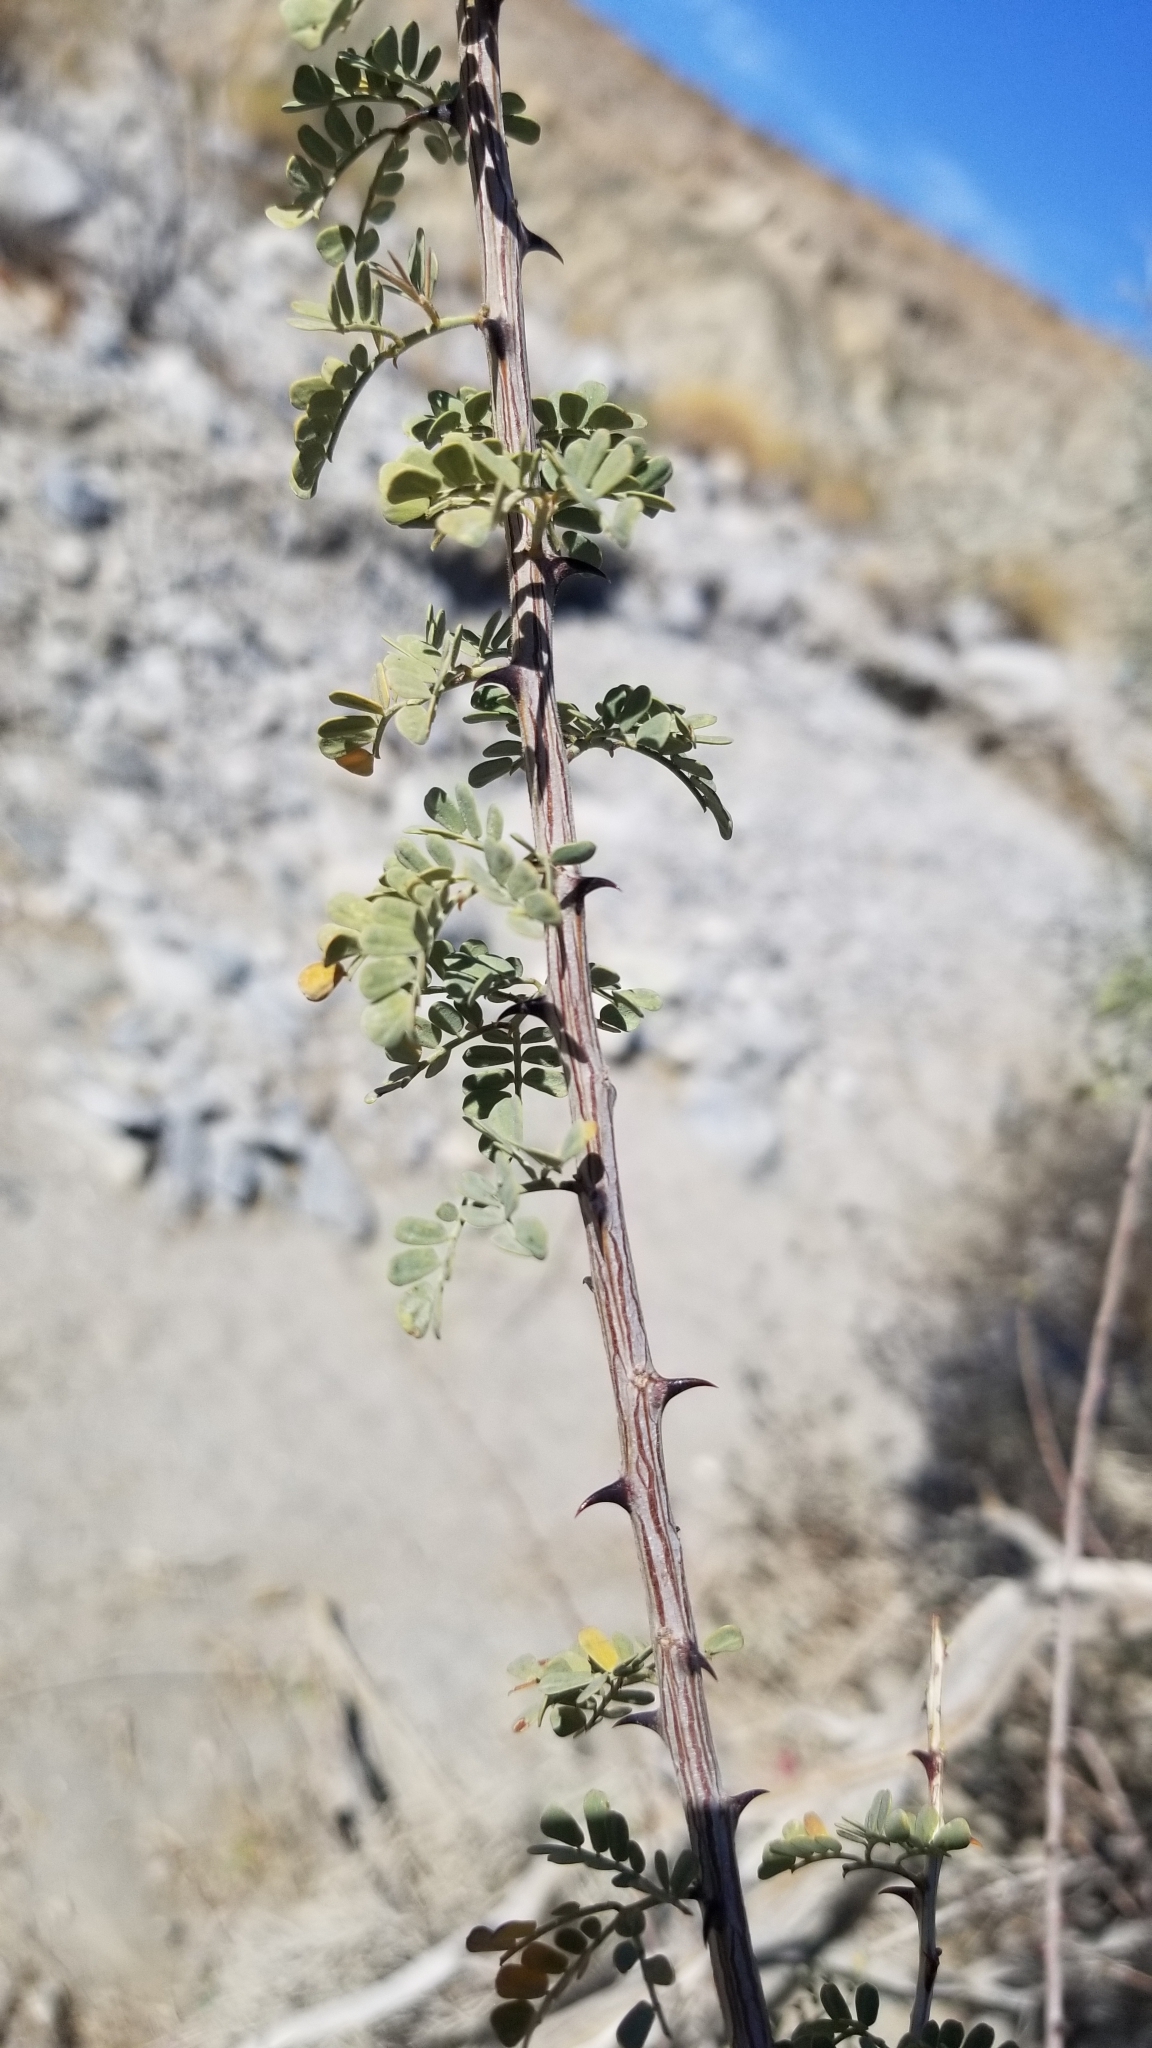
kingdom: Plantae
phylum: Tracheophyta
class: Magnoliopsida
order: Fabales
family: Fabaceae
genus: Senegalia
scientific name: Senegalia greggii
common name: Texas-mimosa
